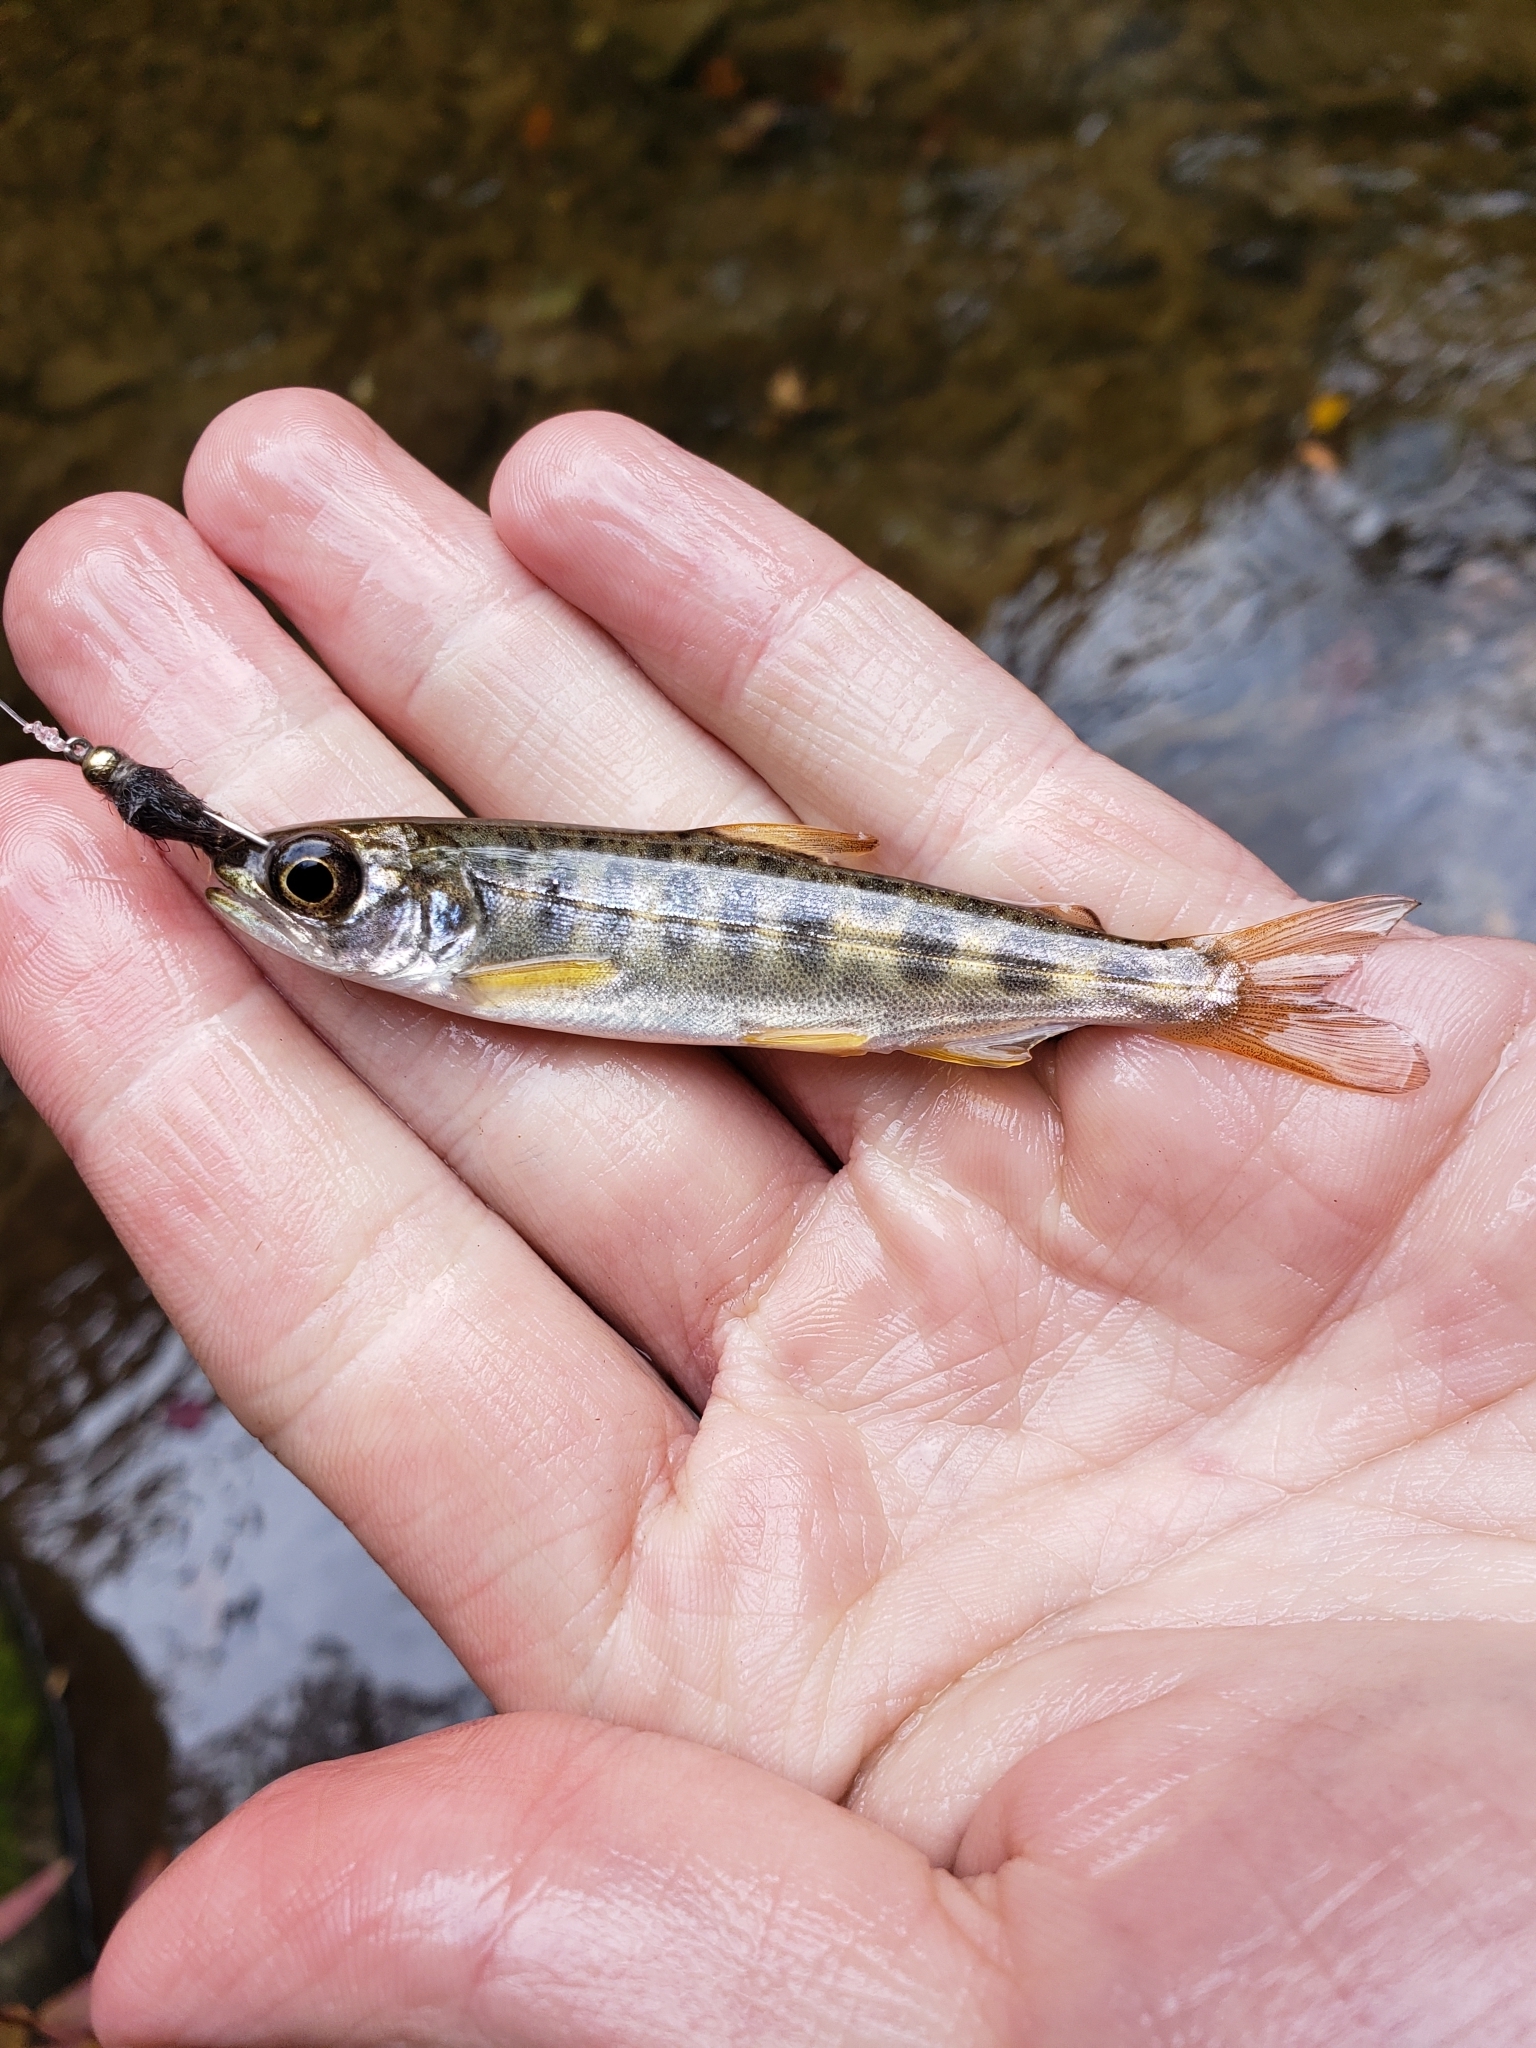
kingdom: Animalia
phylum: Chordata
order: Salmoniformes
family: Salmonidae
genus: Oncorhynchus
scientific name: Oncorhynchus tshawytscha
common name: Chinook salmon
